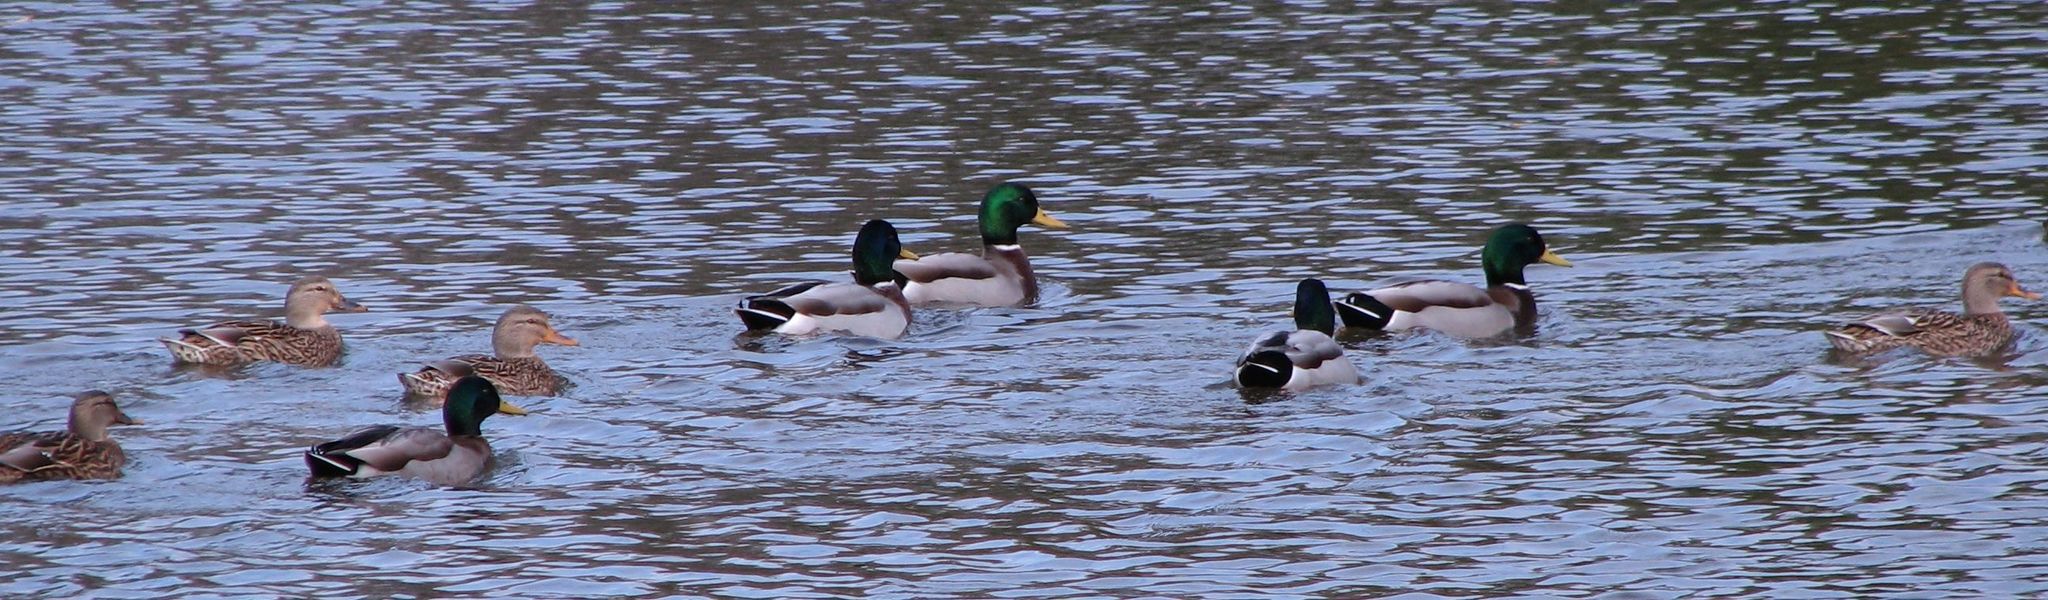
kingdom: Animalia
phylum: Chordata
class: Aves
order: Anseriformes
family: Anatidae
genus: Anas
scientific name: Anas platyrhynchos
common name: Mallard
